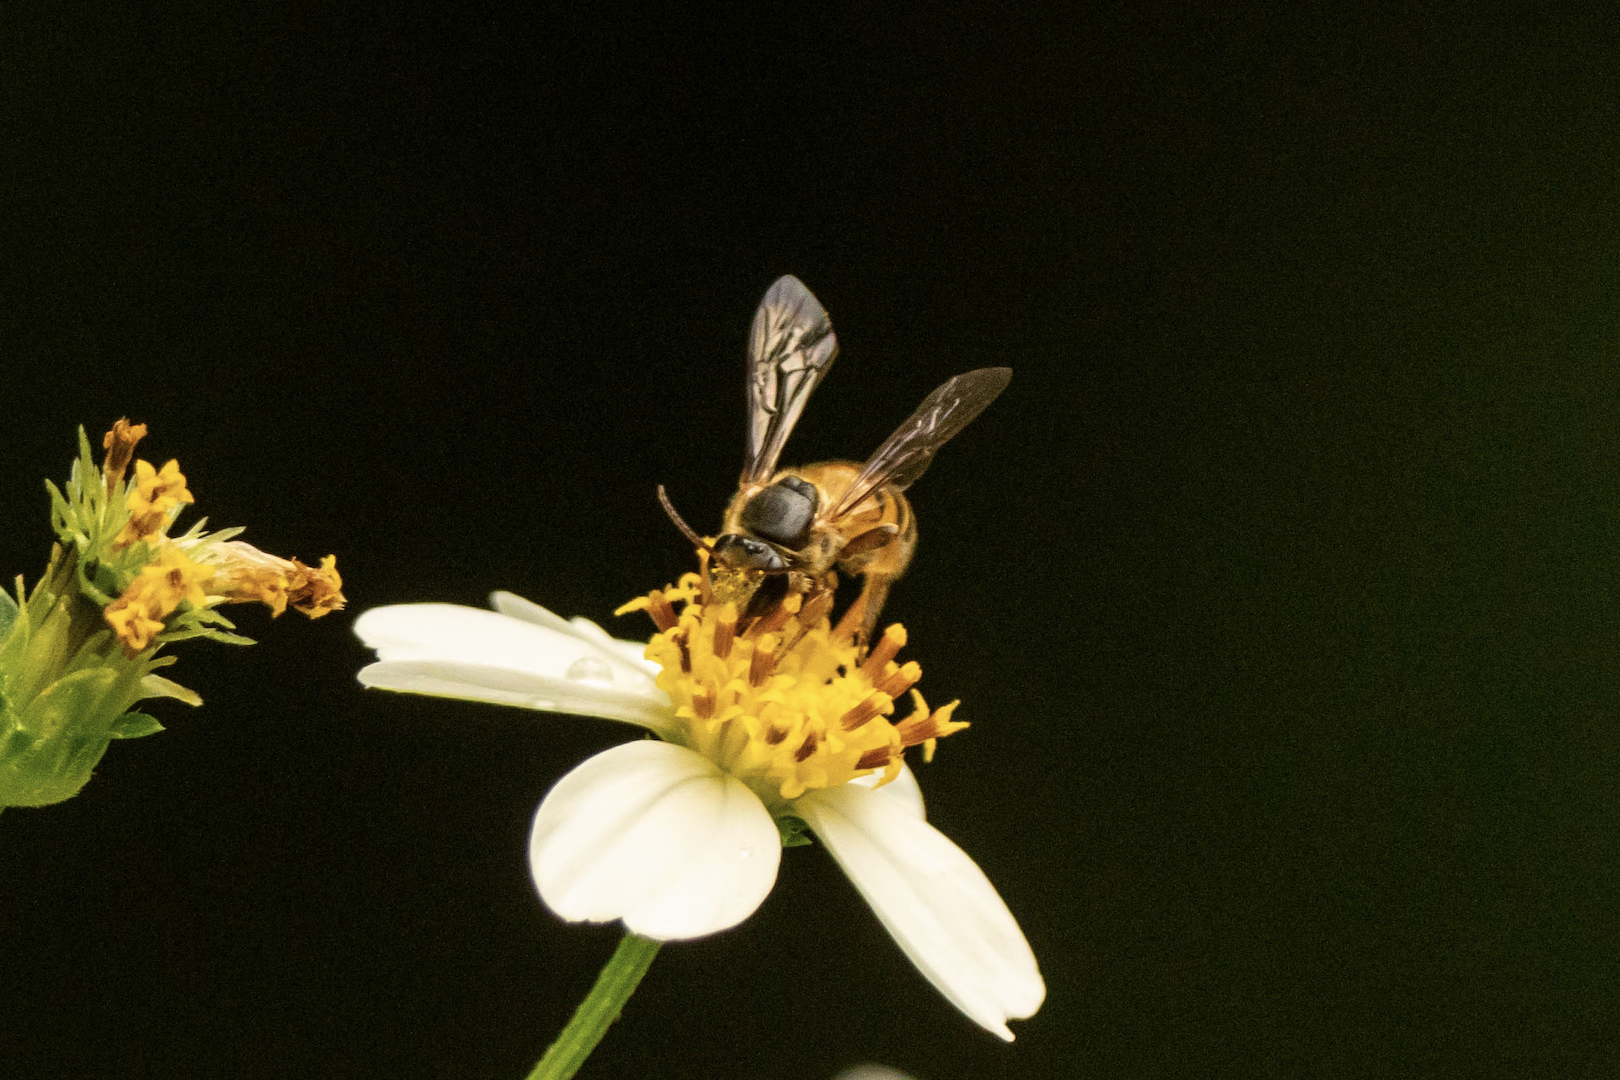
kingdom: Animalia
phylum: Arthropoda
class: Insecta
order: Hymenoptera
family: Halictidae
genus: Nomia
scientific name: Nomia penangensis
